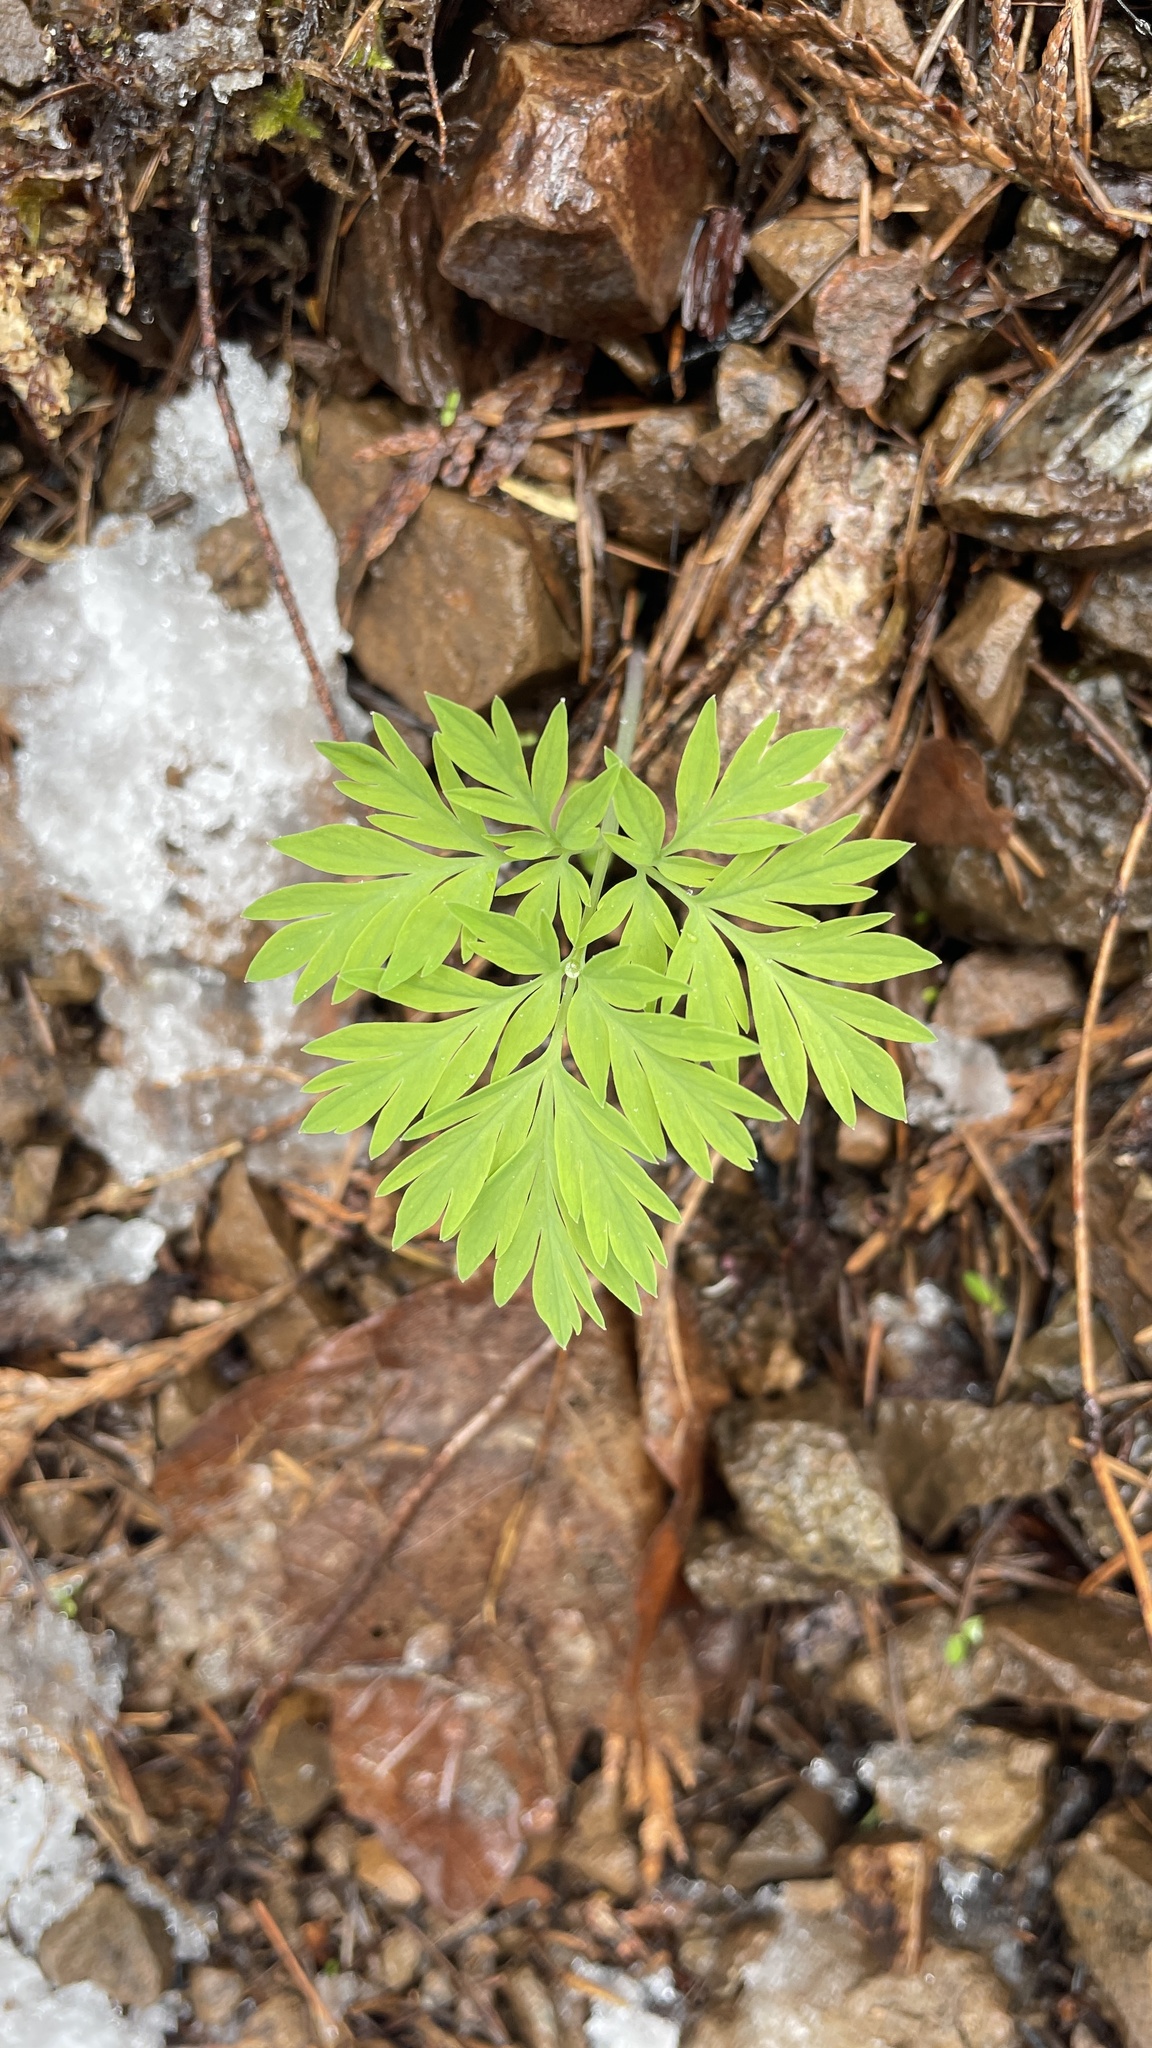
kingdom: Plantae
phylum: Tracheophyta
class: Magnoliopsida
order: Ranunculales
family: Papaveraceae
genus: Dicentra
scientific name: Dicentra formosa
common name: Bleeding-heart
